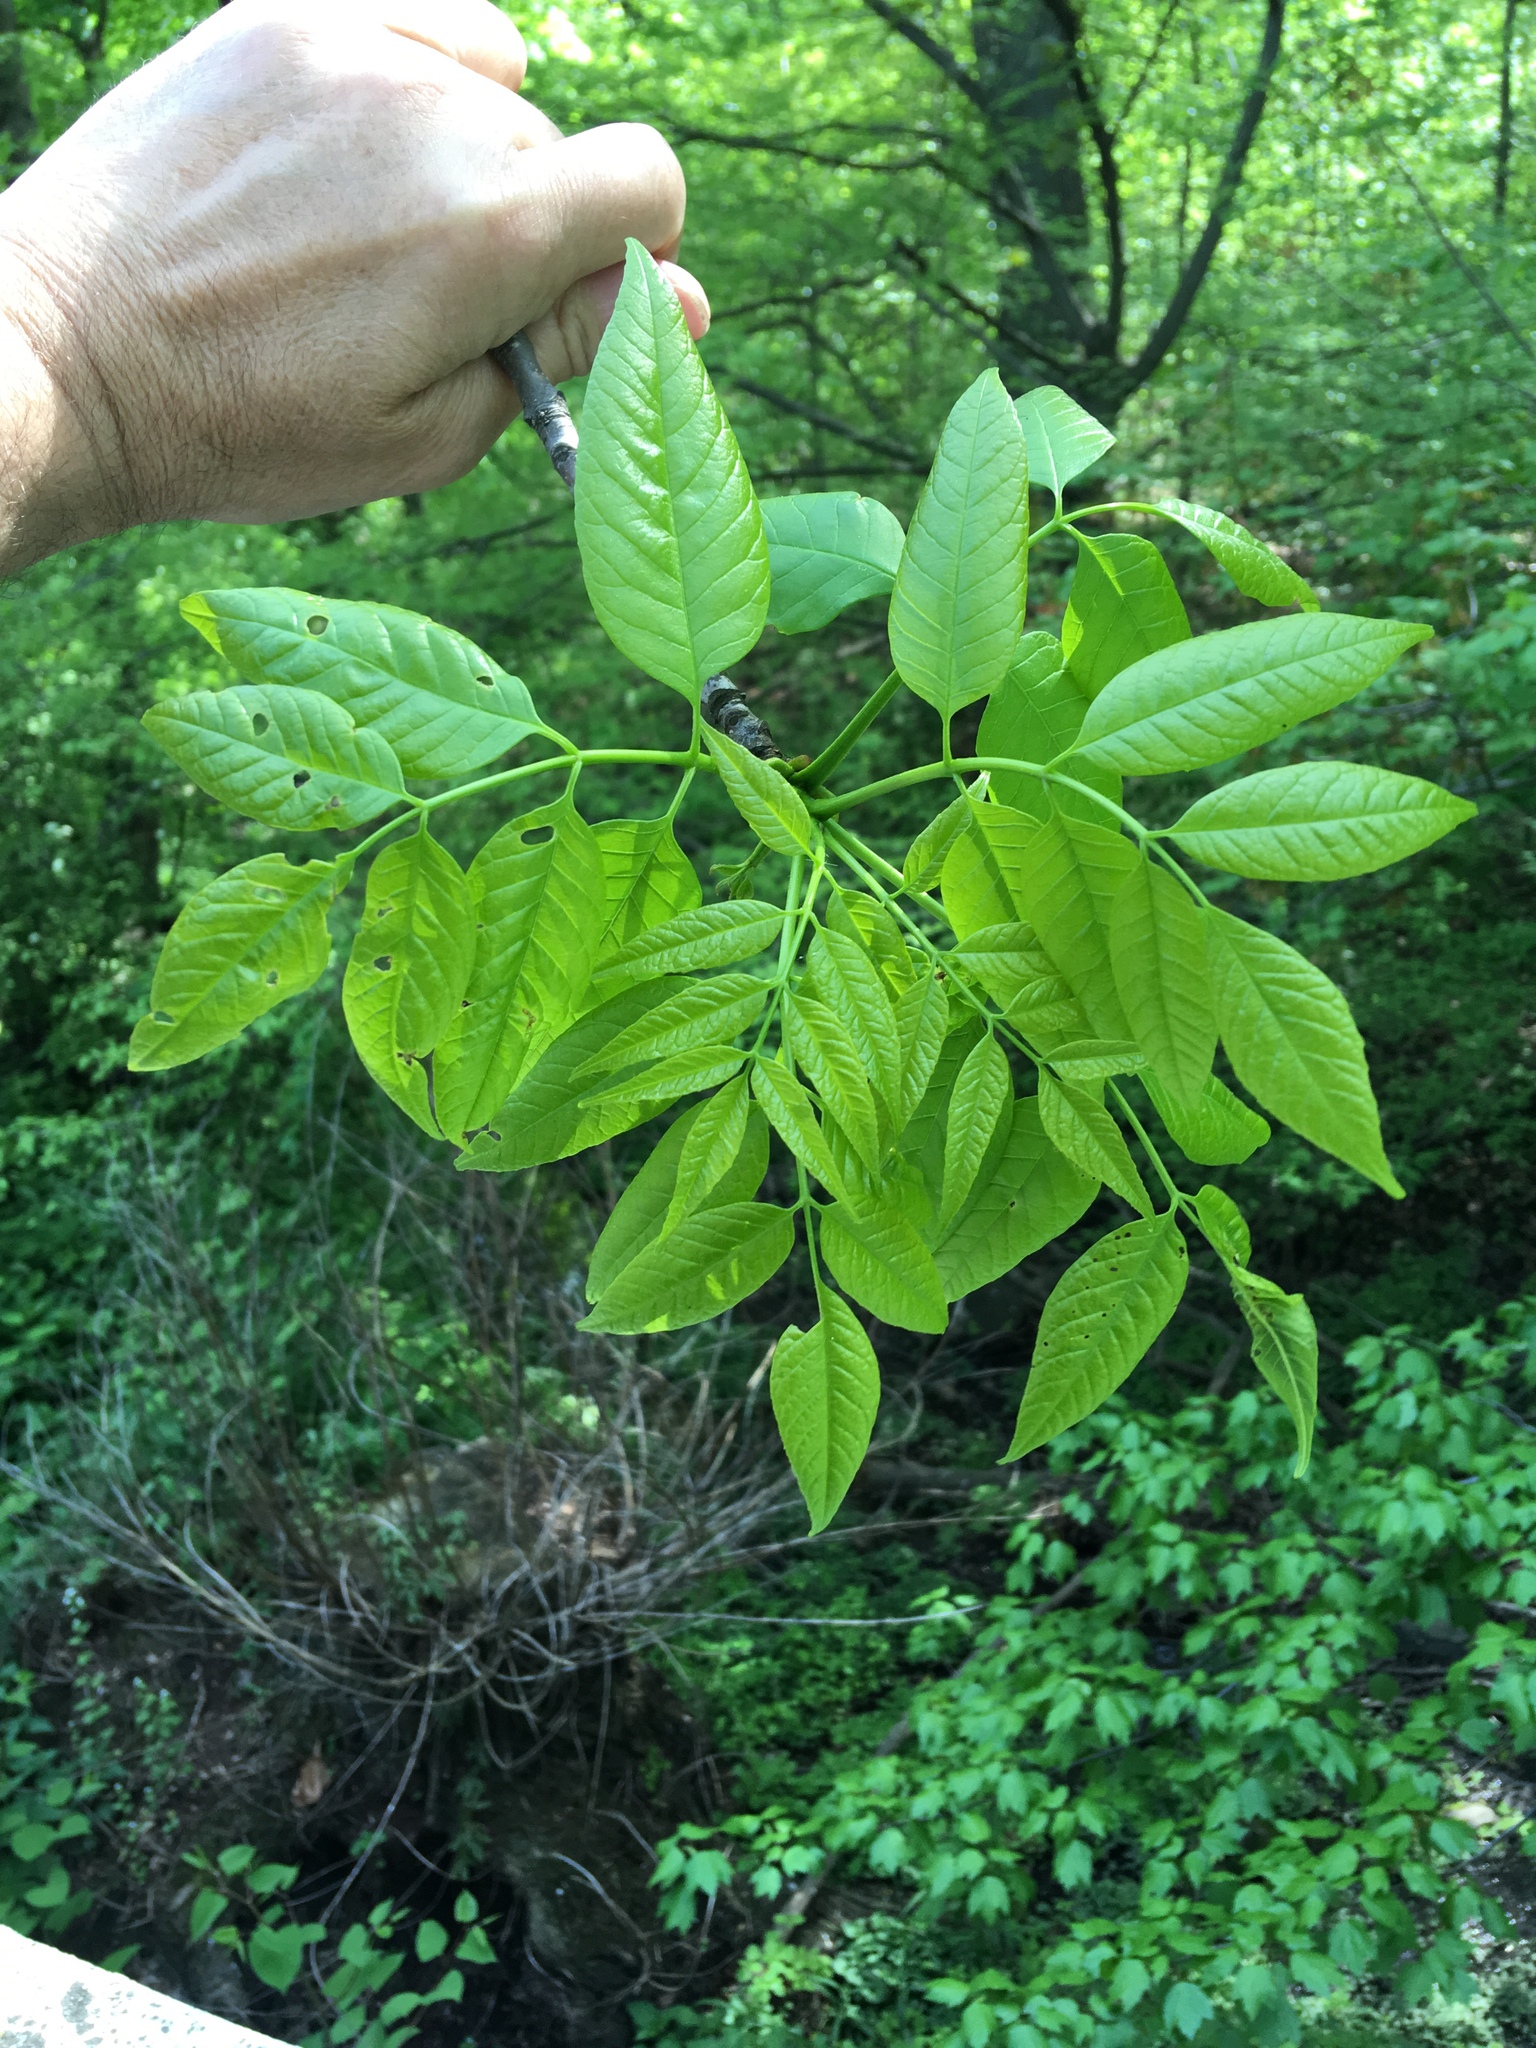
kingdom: Plantae
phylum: Tracheophyta
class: Magnoliopsida
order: Lamiales
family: Oleaceae
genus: Fraxinus
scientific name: Fraxinus pennsylvanica
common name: Green ash
